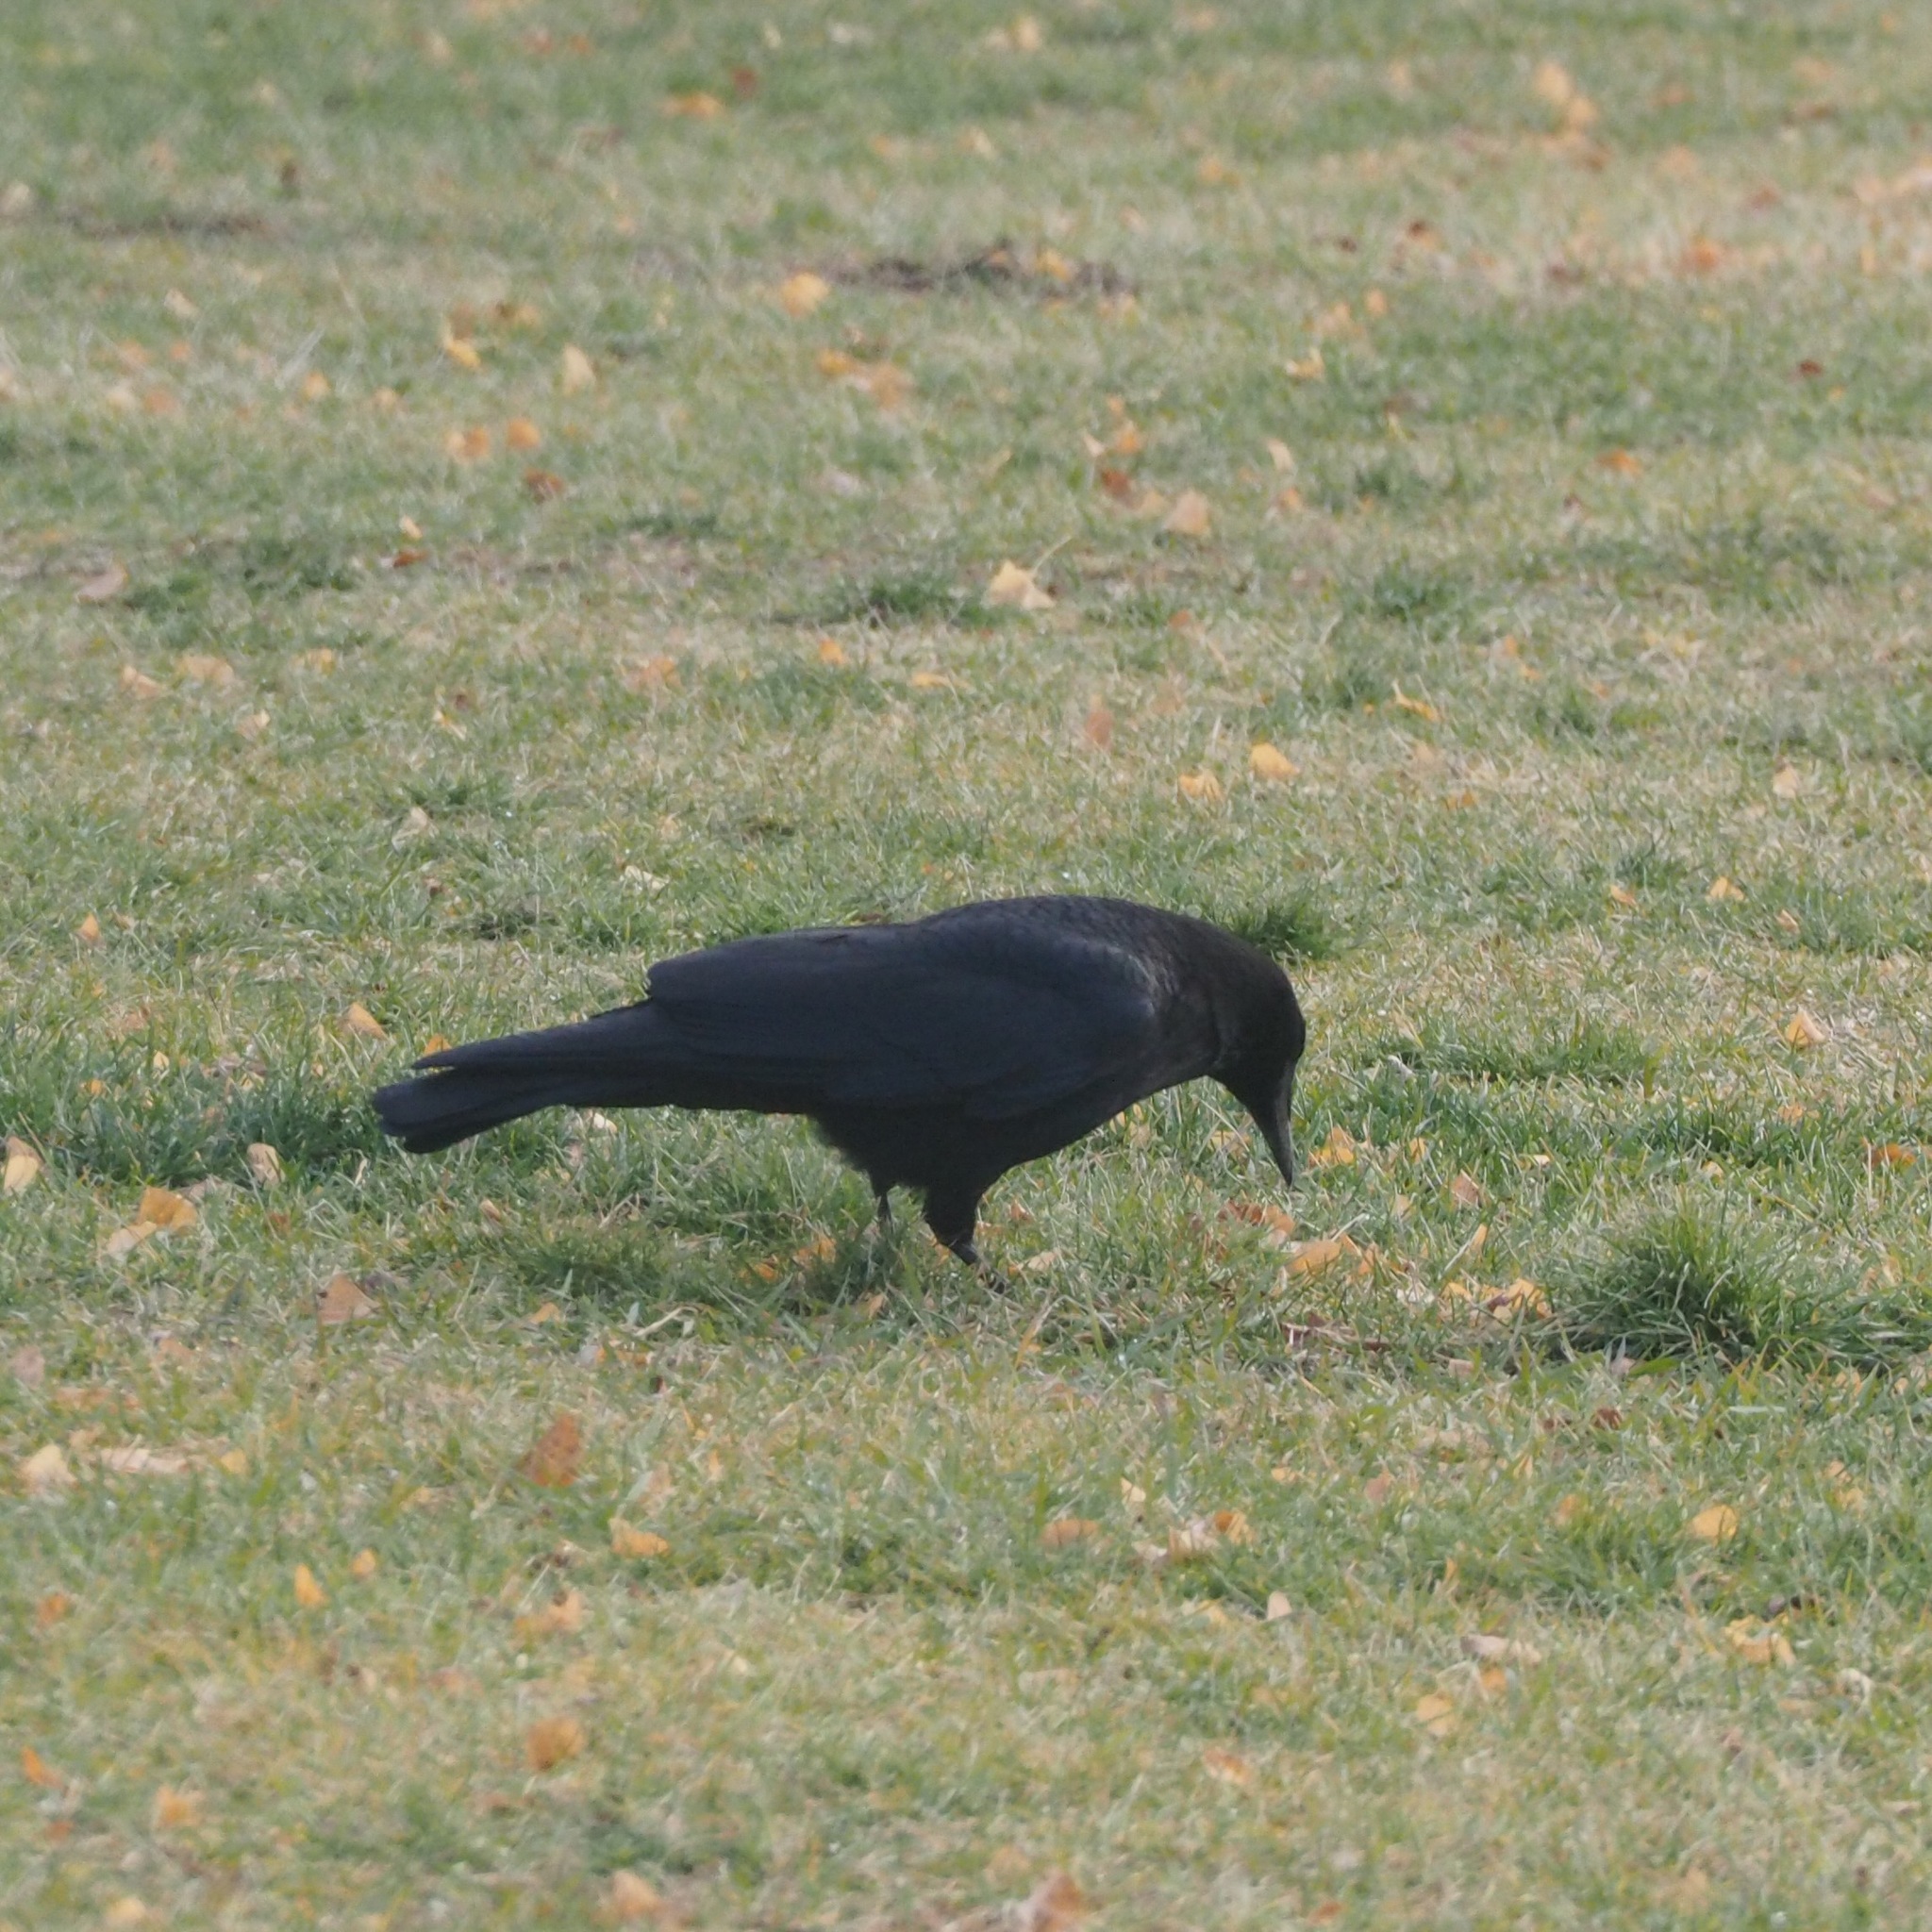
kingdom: Animalia
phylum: Chordata
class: Aves
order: Passeriformes
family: Corvidae
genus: Corvus
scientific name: Corvus corone
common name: Carrion crow
